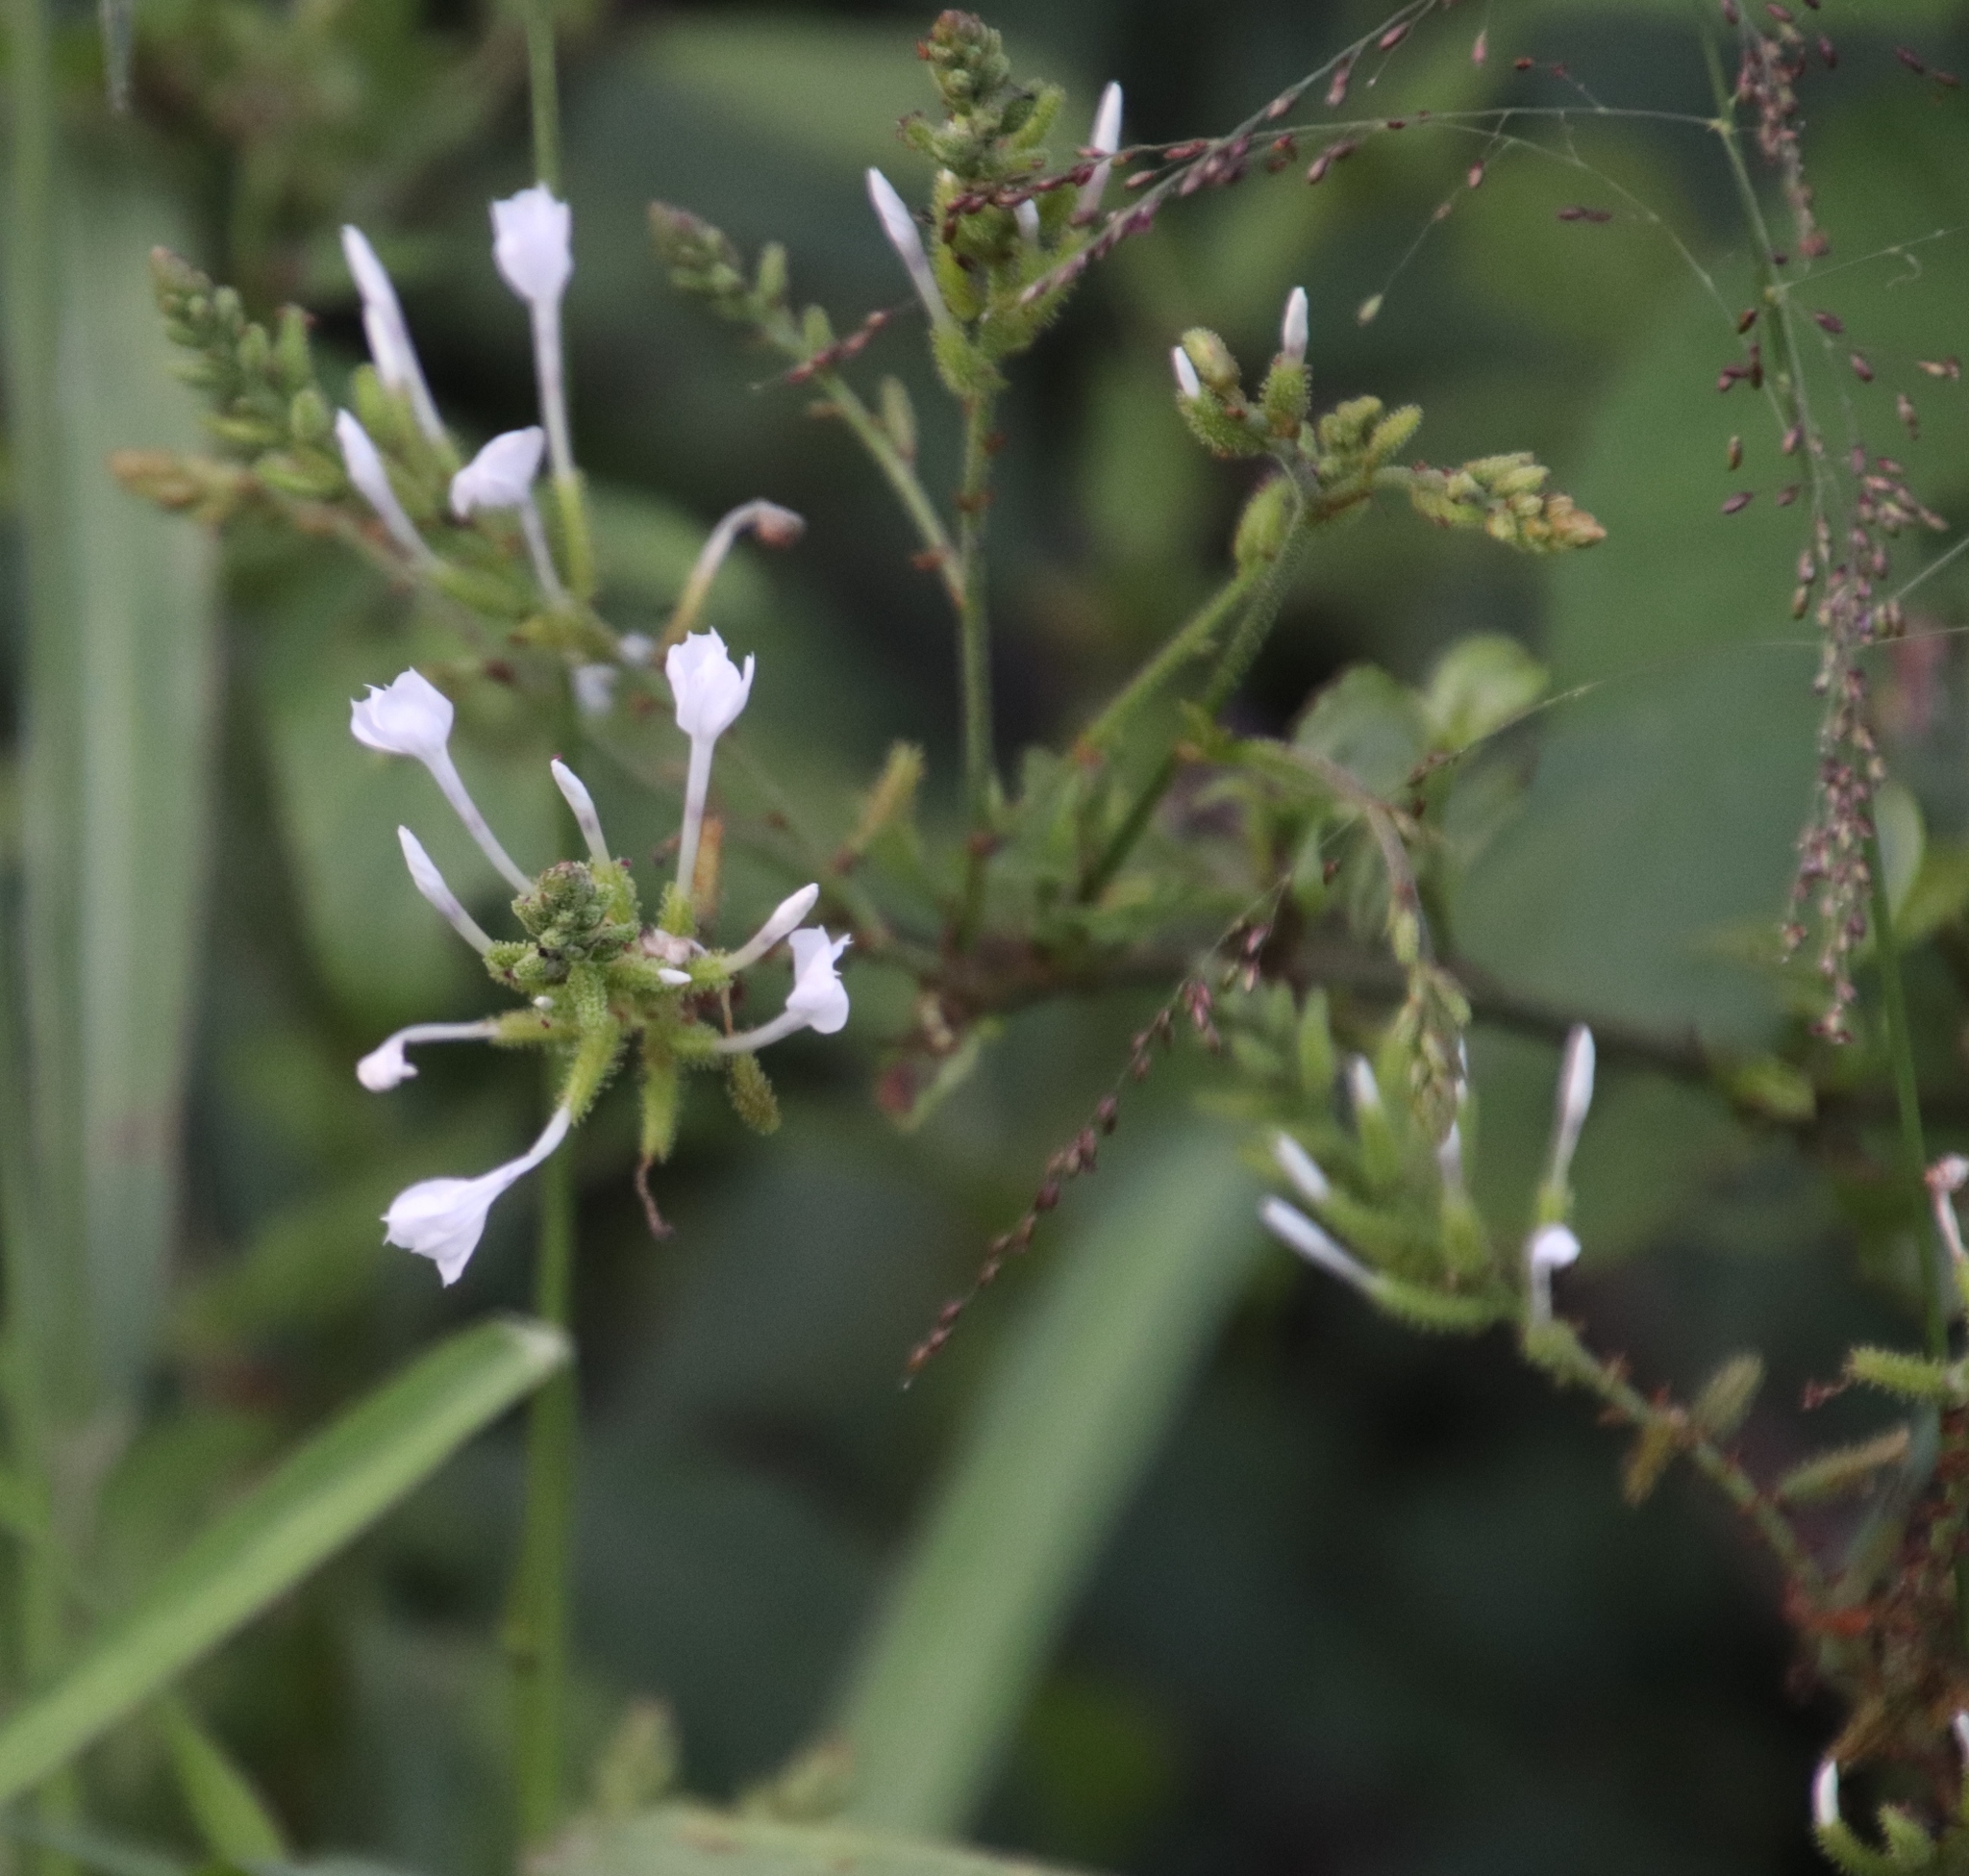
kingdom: Plantae
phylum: Tracheophyta
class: Magnoliopsida
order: Caryophyllales
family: Plumbaginaceae
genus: Plumbago
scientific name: Plumbago zeylanica
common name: Doctorbush
